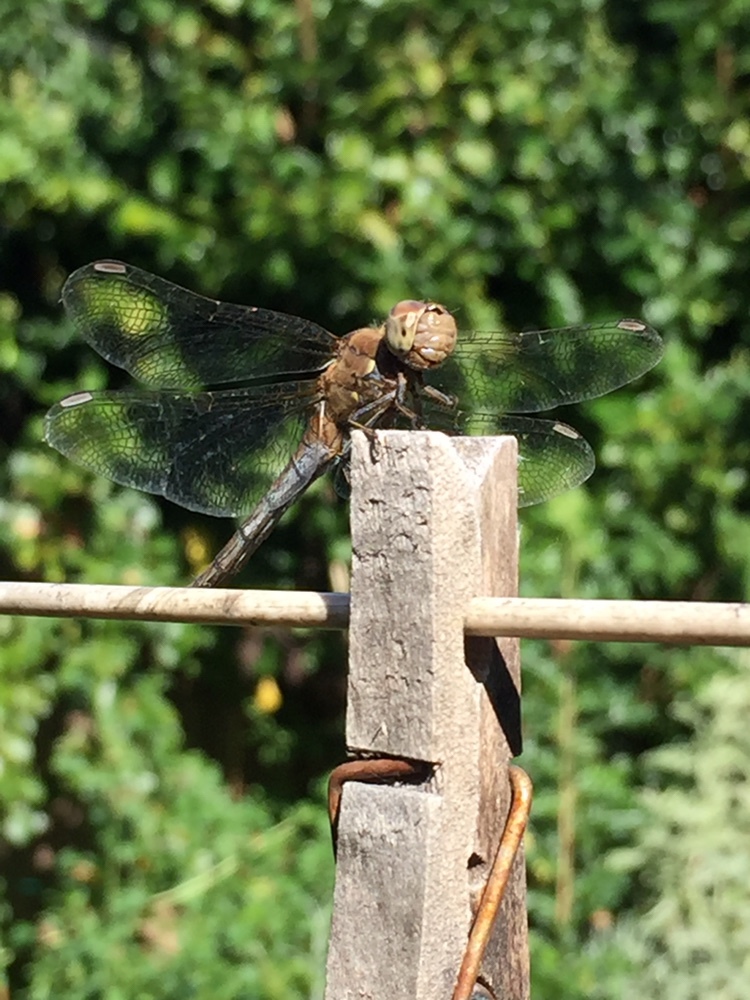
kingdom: Animalia
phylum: Arthropoda
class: Insecta
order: Odonata
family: Libellulidae
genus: Sympetrum
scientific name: Sympetrum striolatum
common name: Common darter
